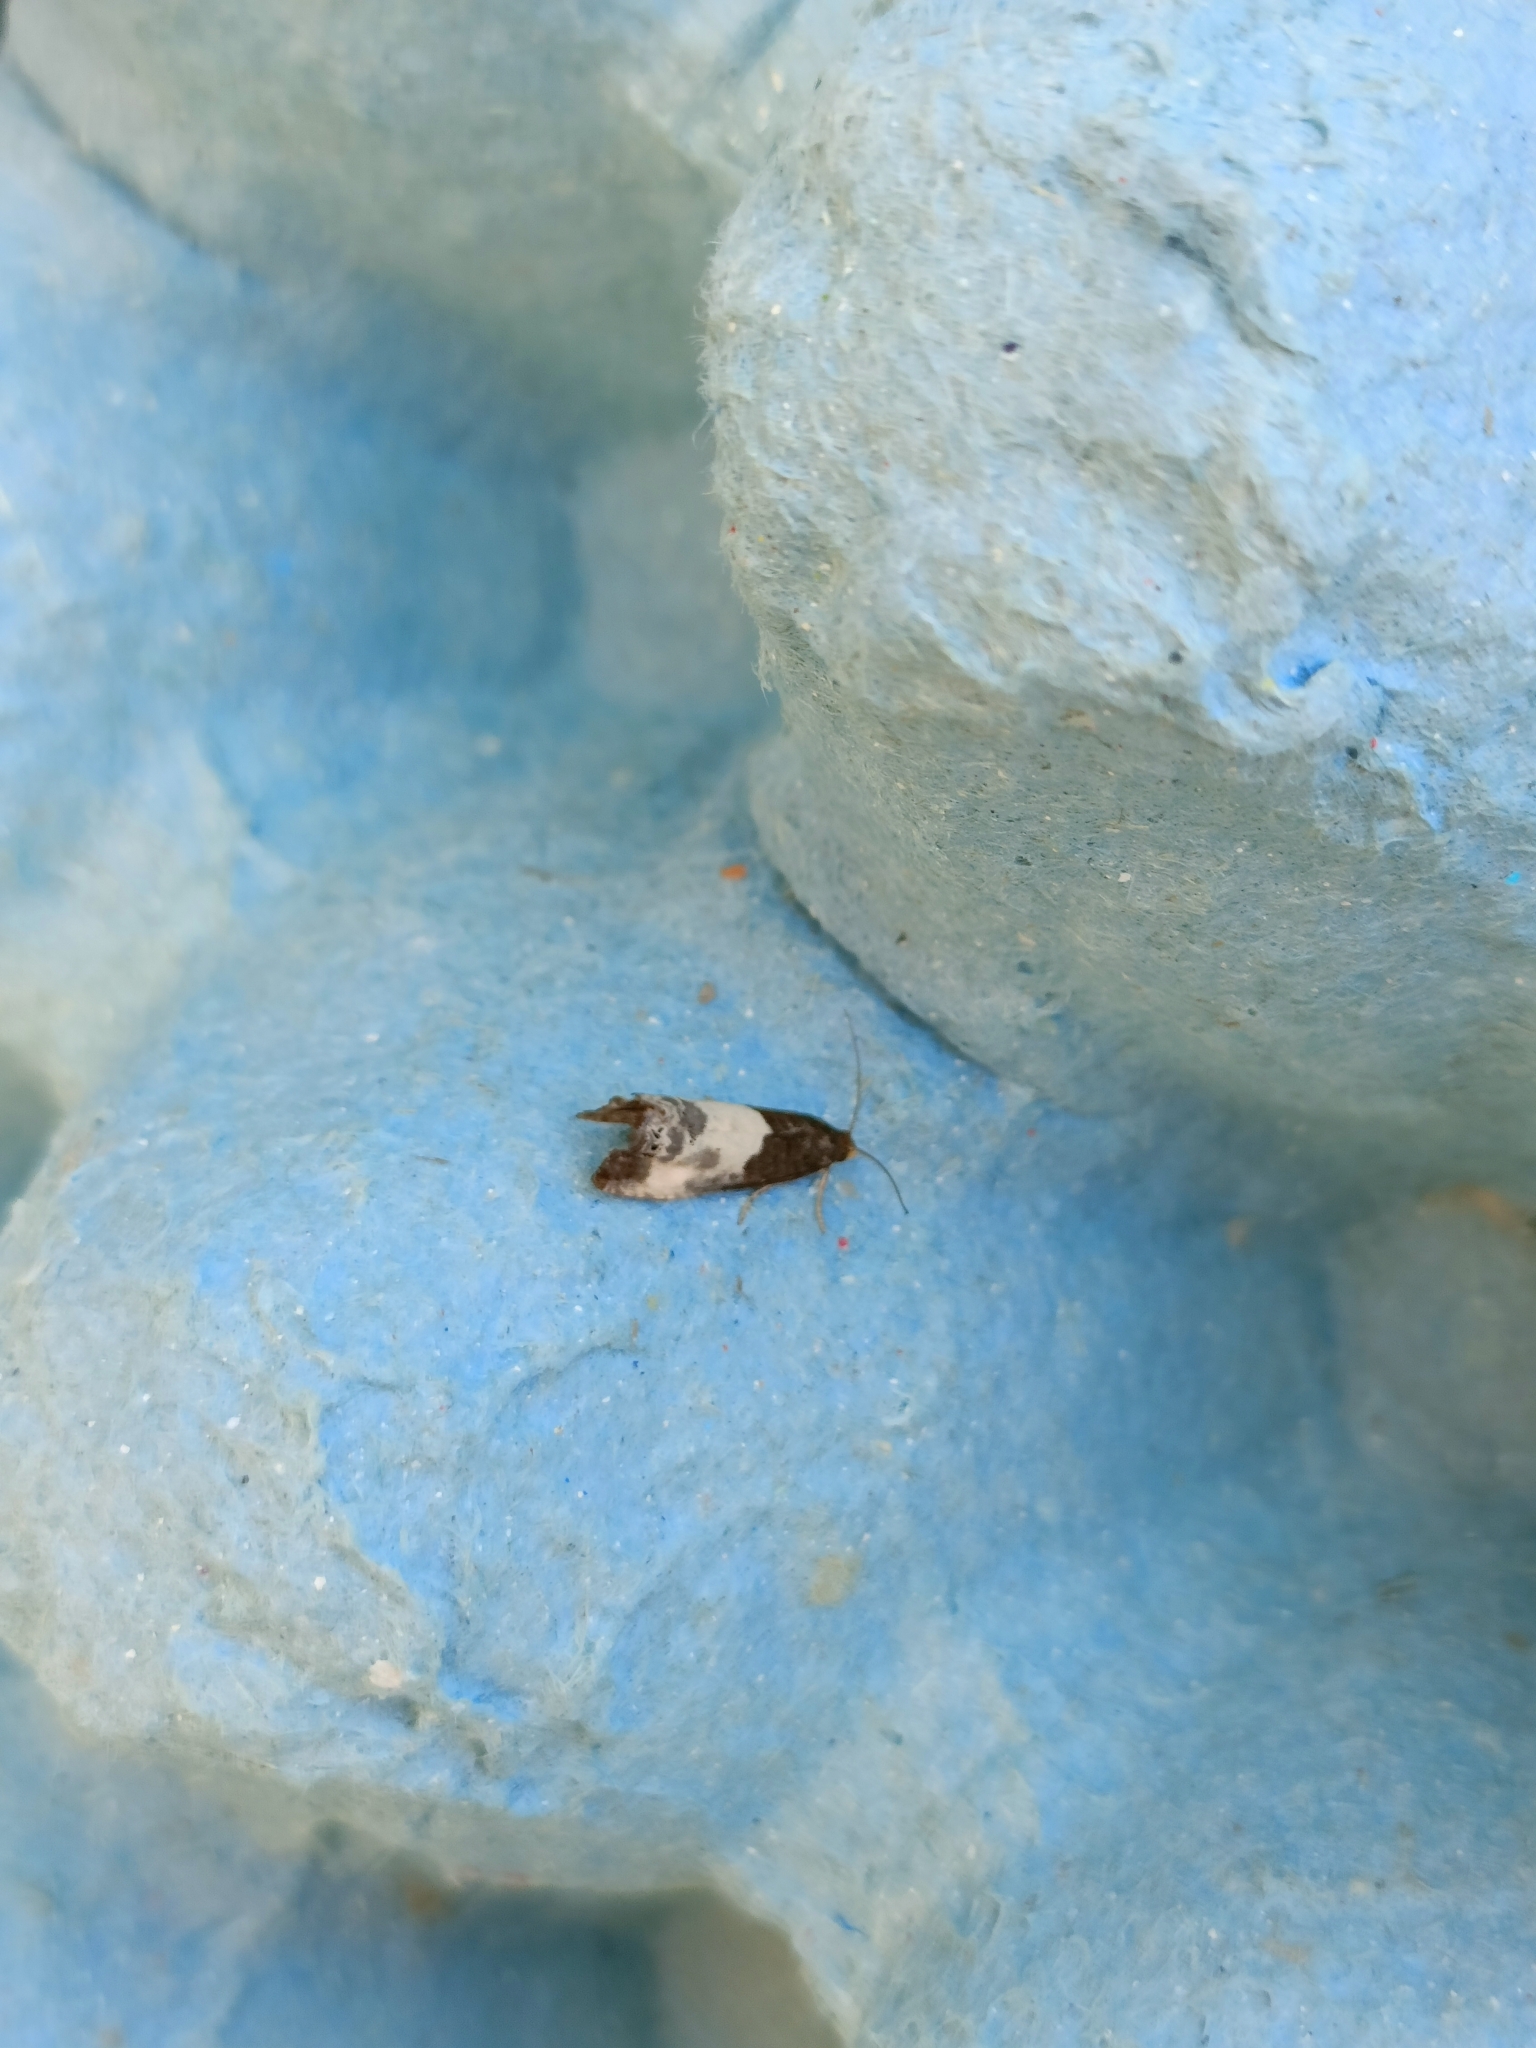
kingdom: Animalia
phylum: Arthropoda
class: Insecta
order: Lepidoptera
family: Tortricidae
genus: Notocelia
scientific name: Notocelia cynosbatella
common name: Yellow-faced bell moth
